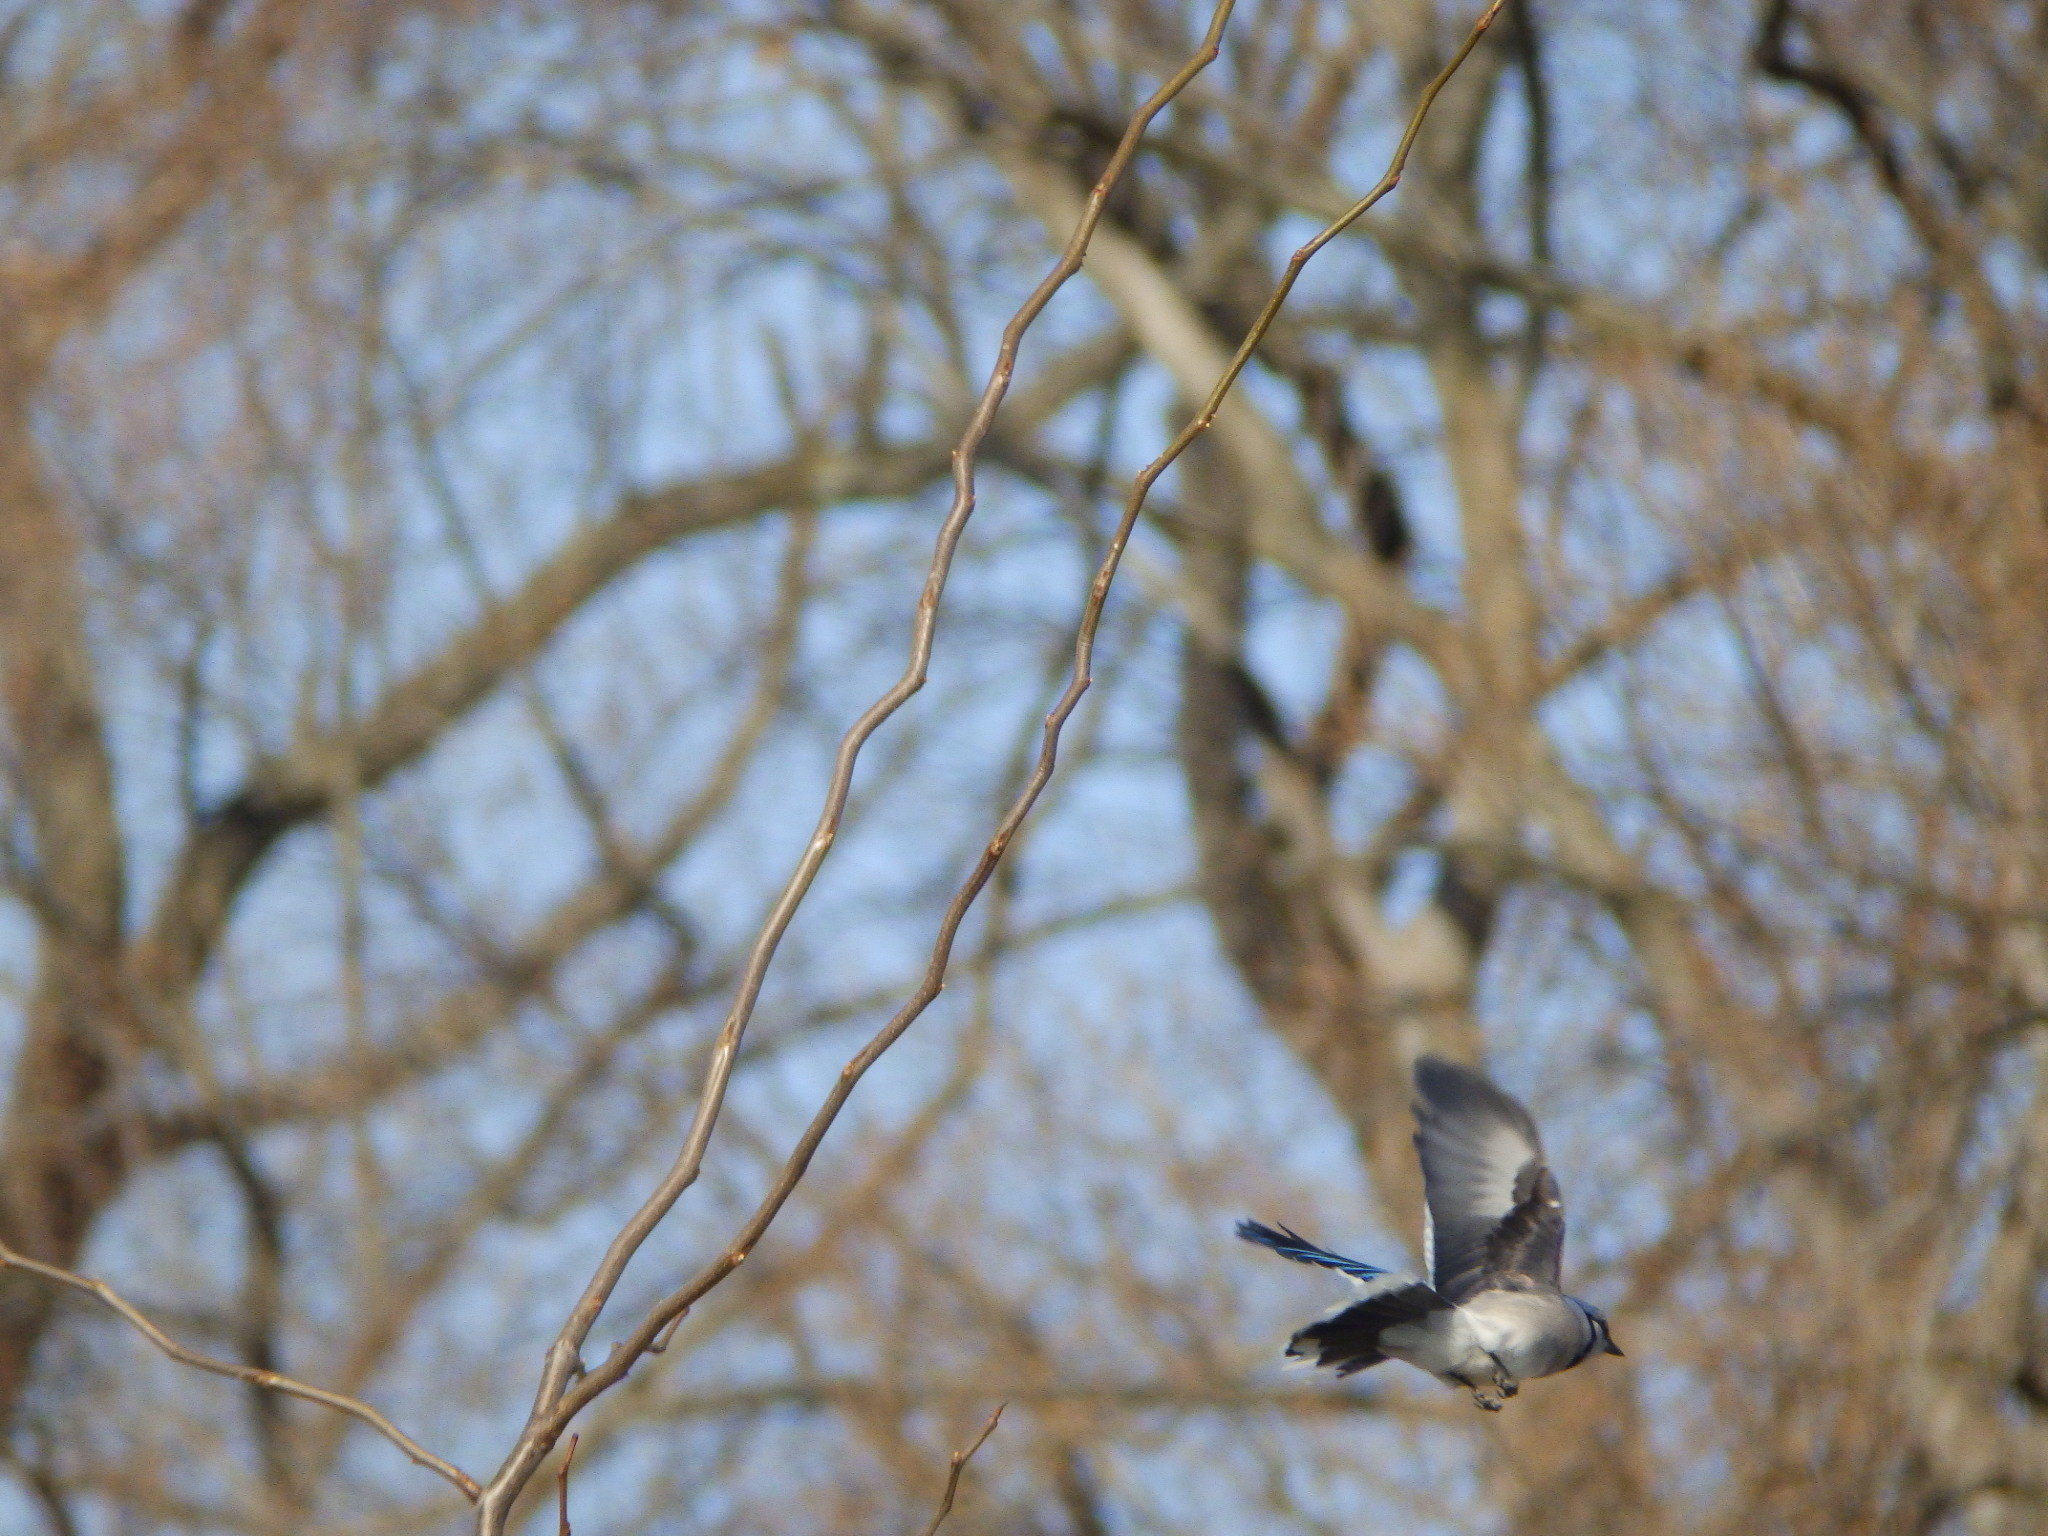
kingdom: Animalia
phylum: Chordata
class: Aves
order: Passeriformes
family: Corvidae
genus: Cyanocitta
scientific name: Cyanocitta cristata
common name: Blue jay
